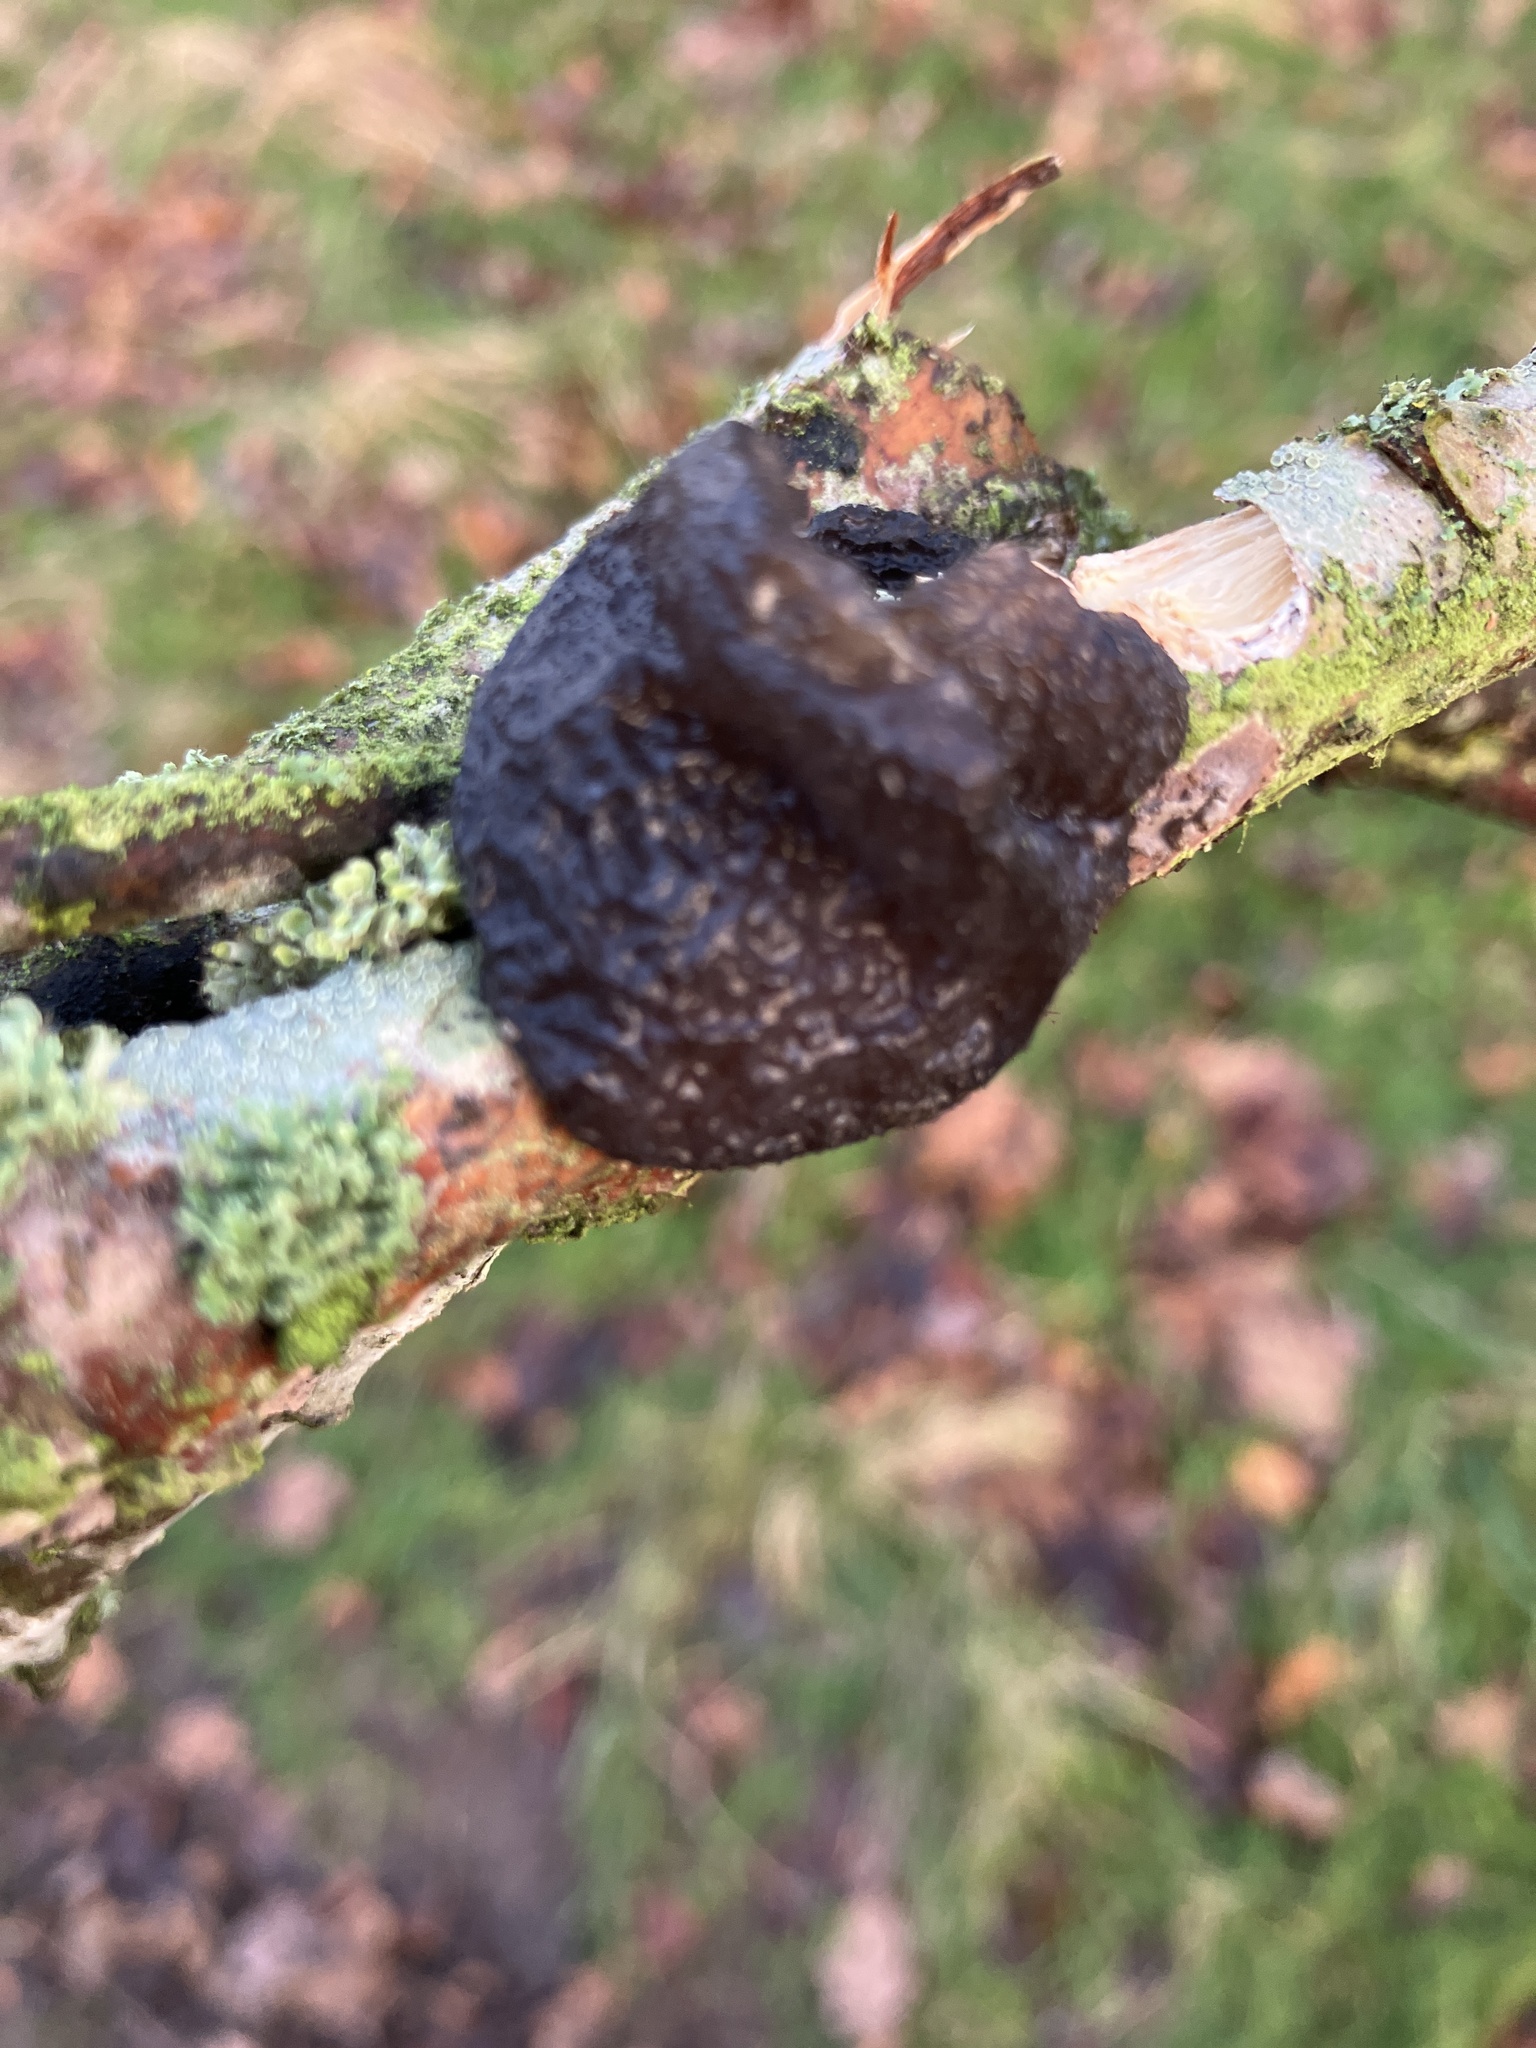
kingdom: Fungi
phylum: Basidiomycota
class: Agaricomycetes
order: Auriculariales
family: Auriculariaceae
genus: Exidia
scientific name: Exidia glandulosa
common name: Witches' butter
